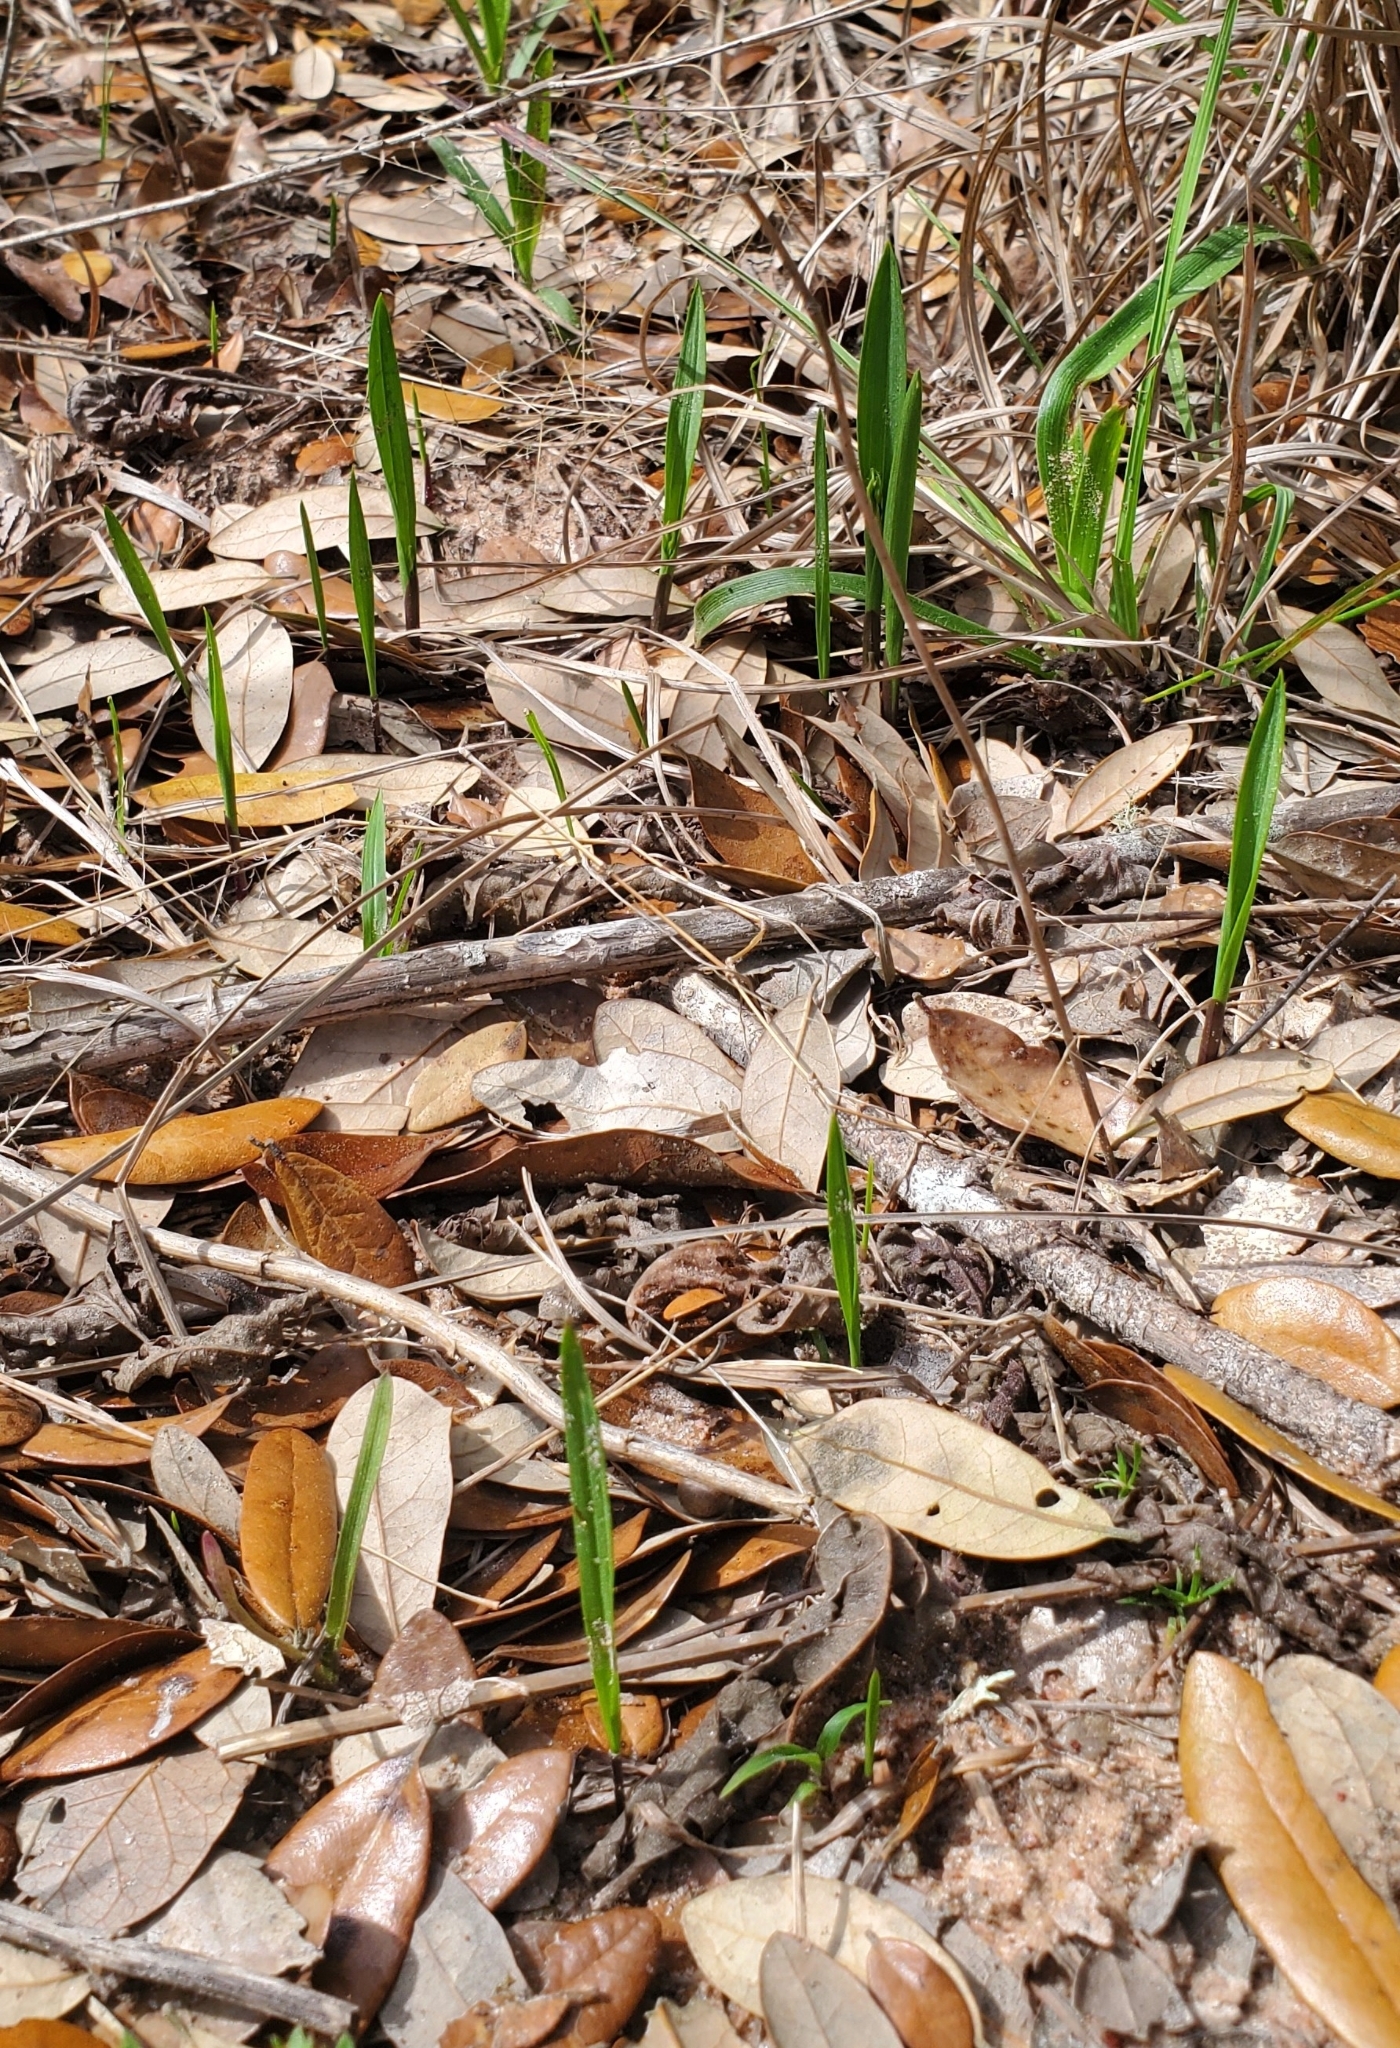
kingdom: Plantae
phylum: Tracheophyta
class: Liliopsida
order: Asparagales
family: Orchidaceae
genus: Calopogon
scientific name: Calopogon oklahomensis
